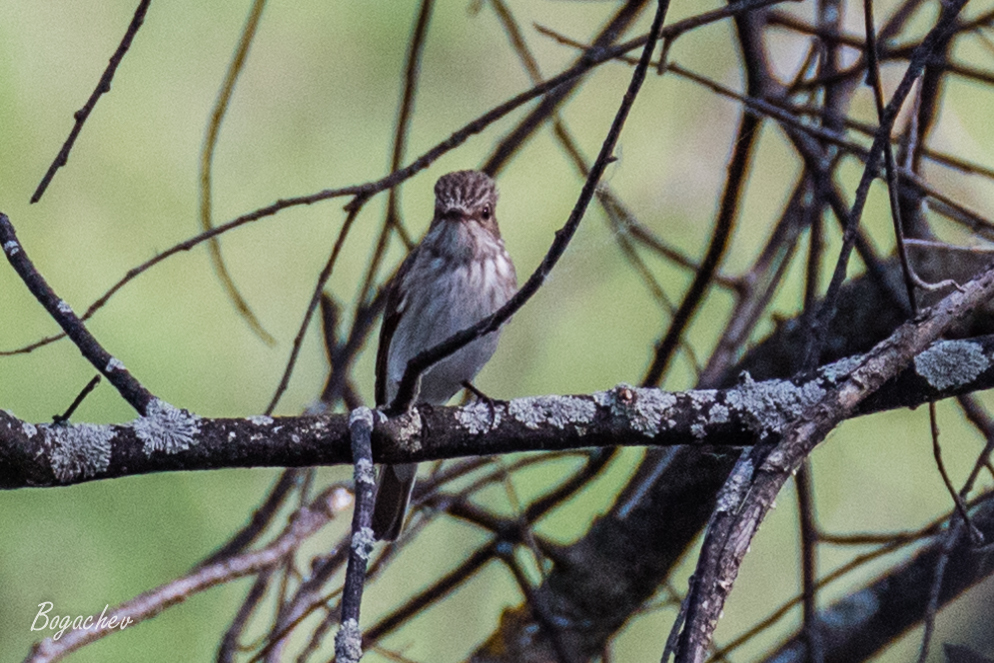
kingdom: Animalia
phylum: Chordata
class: Aves
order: Passeriformes
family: Muscicapidae
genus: Muscicapa
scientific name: Muscicapa striata
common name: Spotted flycatcher
